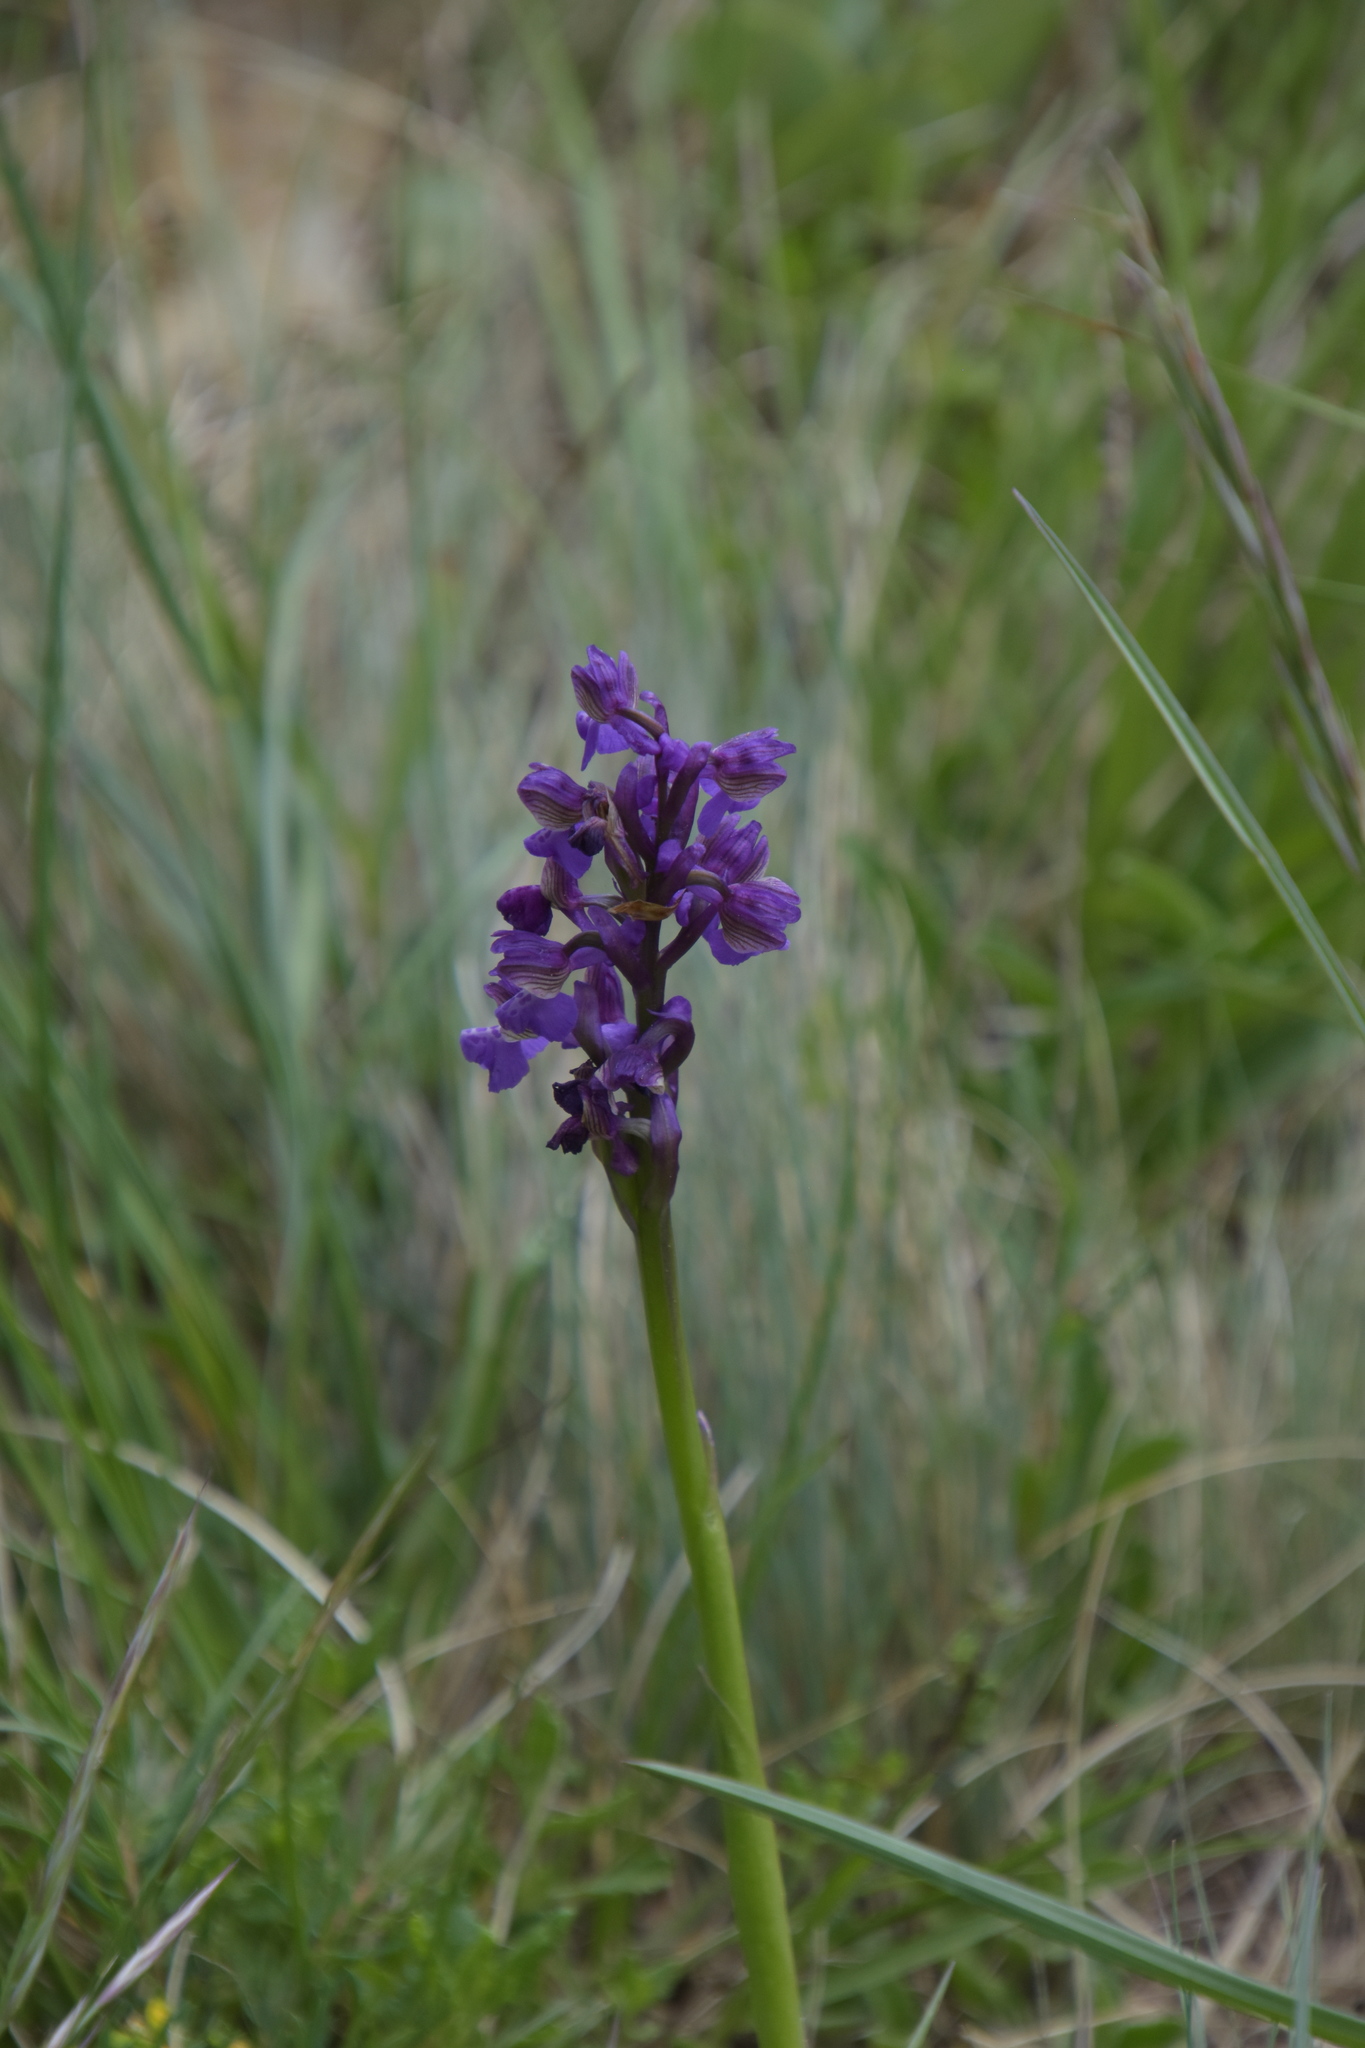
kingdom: Plantae
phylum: Tracheophyta
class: Liliopsida
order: Asparagales
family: Orchidaceae
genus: Anacamptis
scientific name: Anacamptis morio
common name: Green-winged orchid
